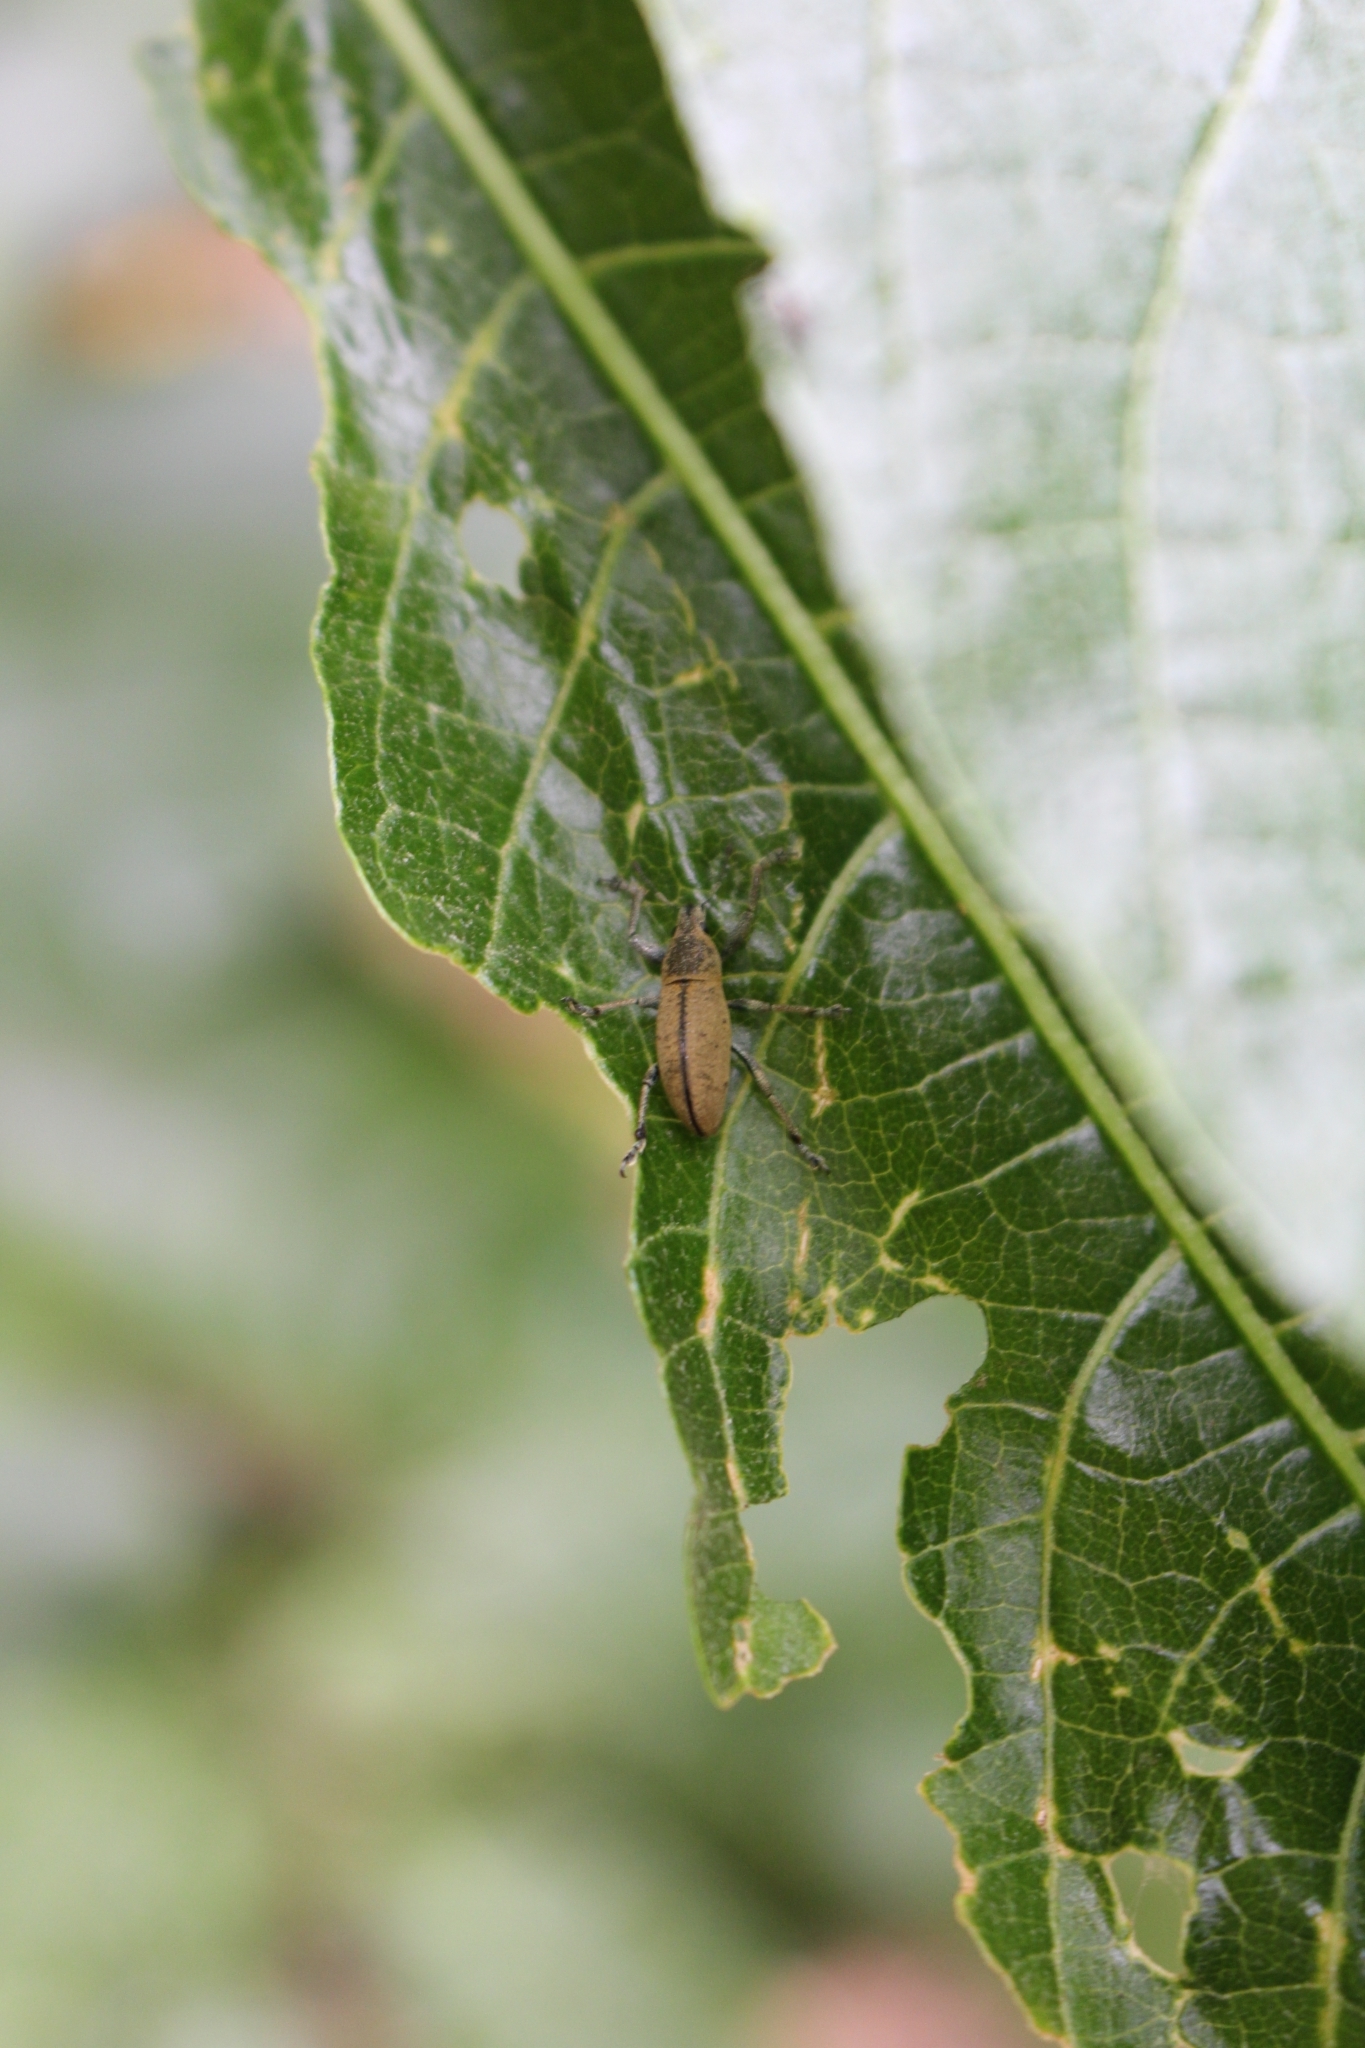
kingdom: Animalia
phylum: Arthropoda
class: Insecta
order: Coleoptera
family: Curculionidae
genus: Cleistolophus
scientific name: Cleistolophus similis
